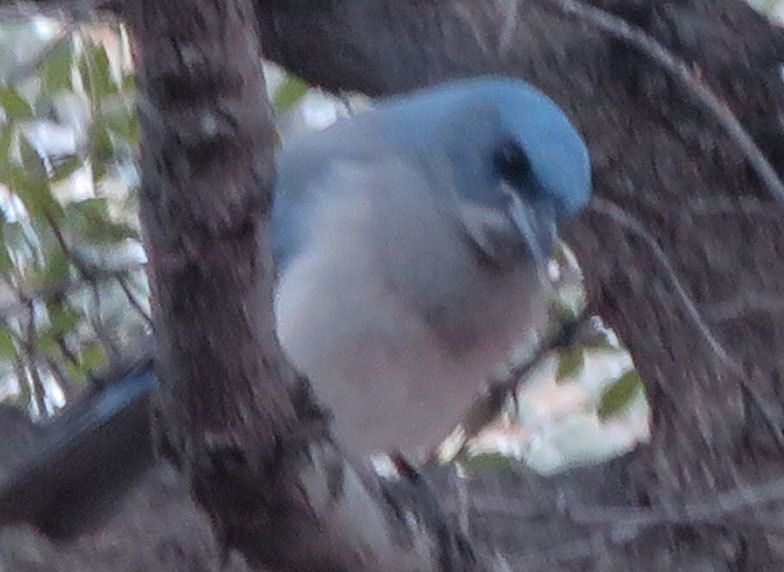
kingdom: Animalia
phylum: Chordata
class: Aves
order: Passeriformes
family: Corvidae
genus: Aphelocoma
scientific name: Aphelocoma wollweberi
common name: Mexican jay
